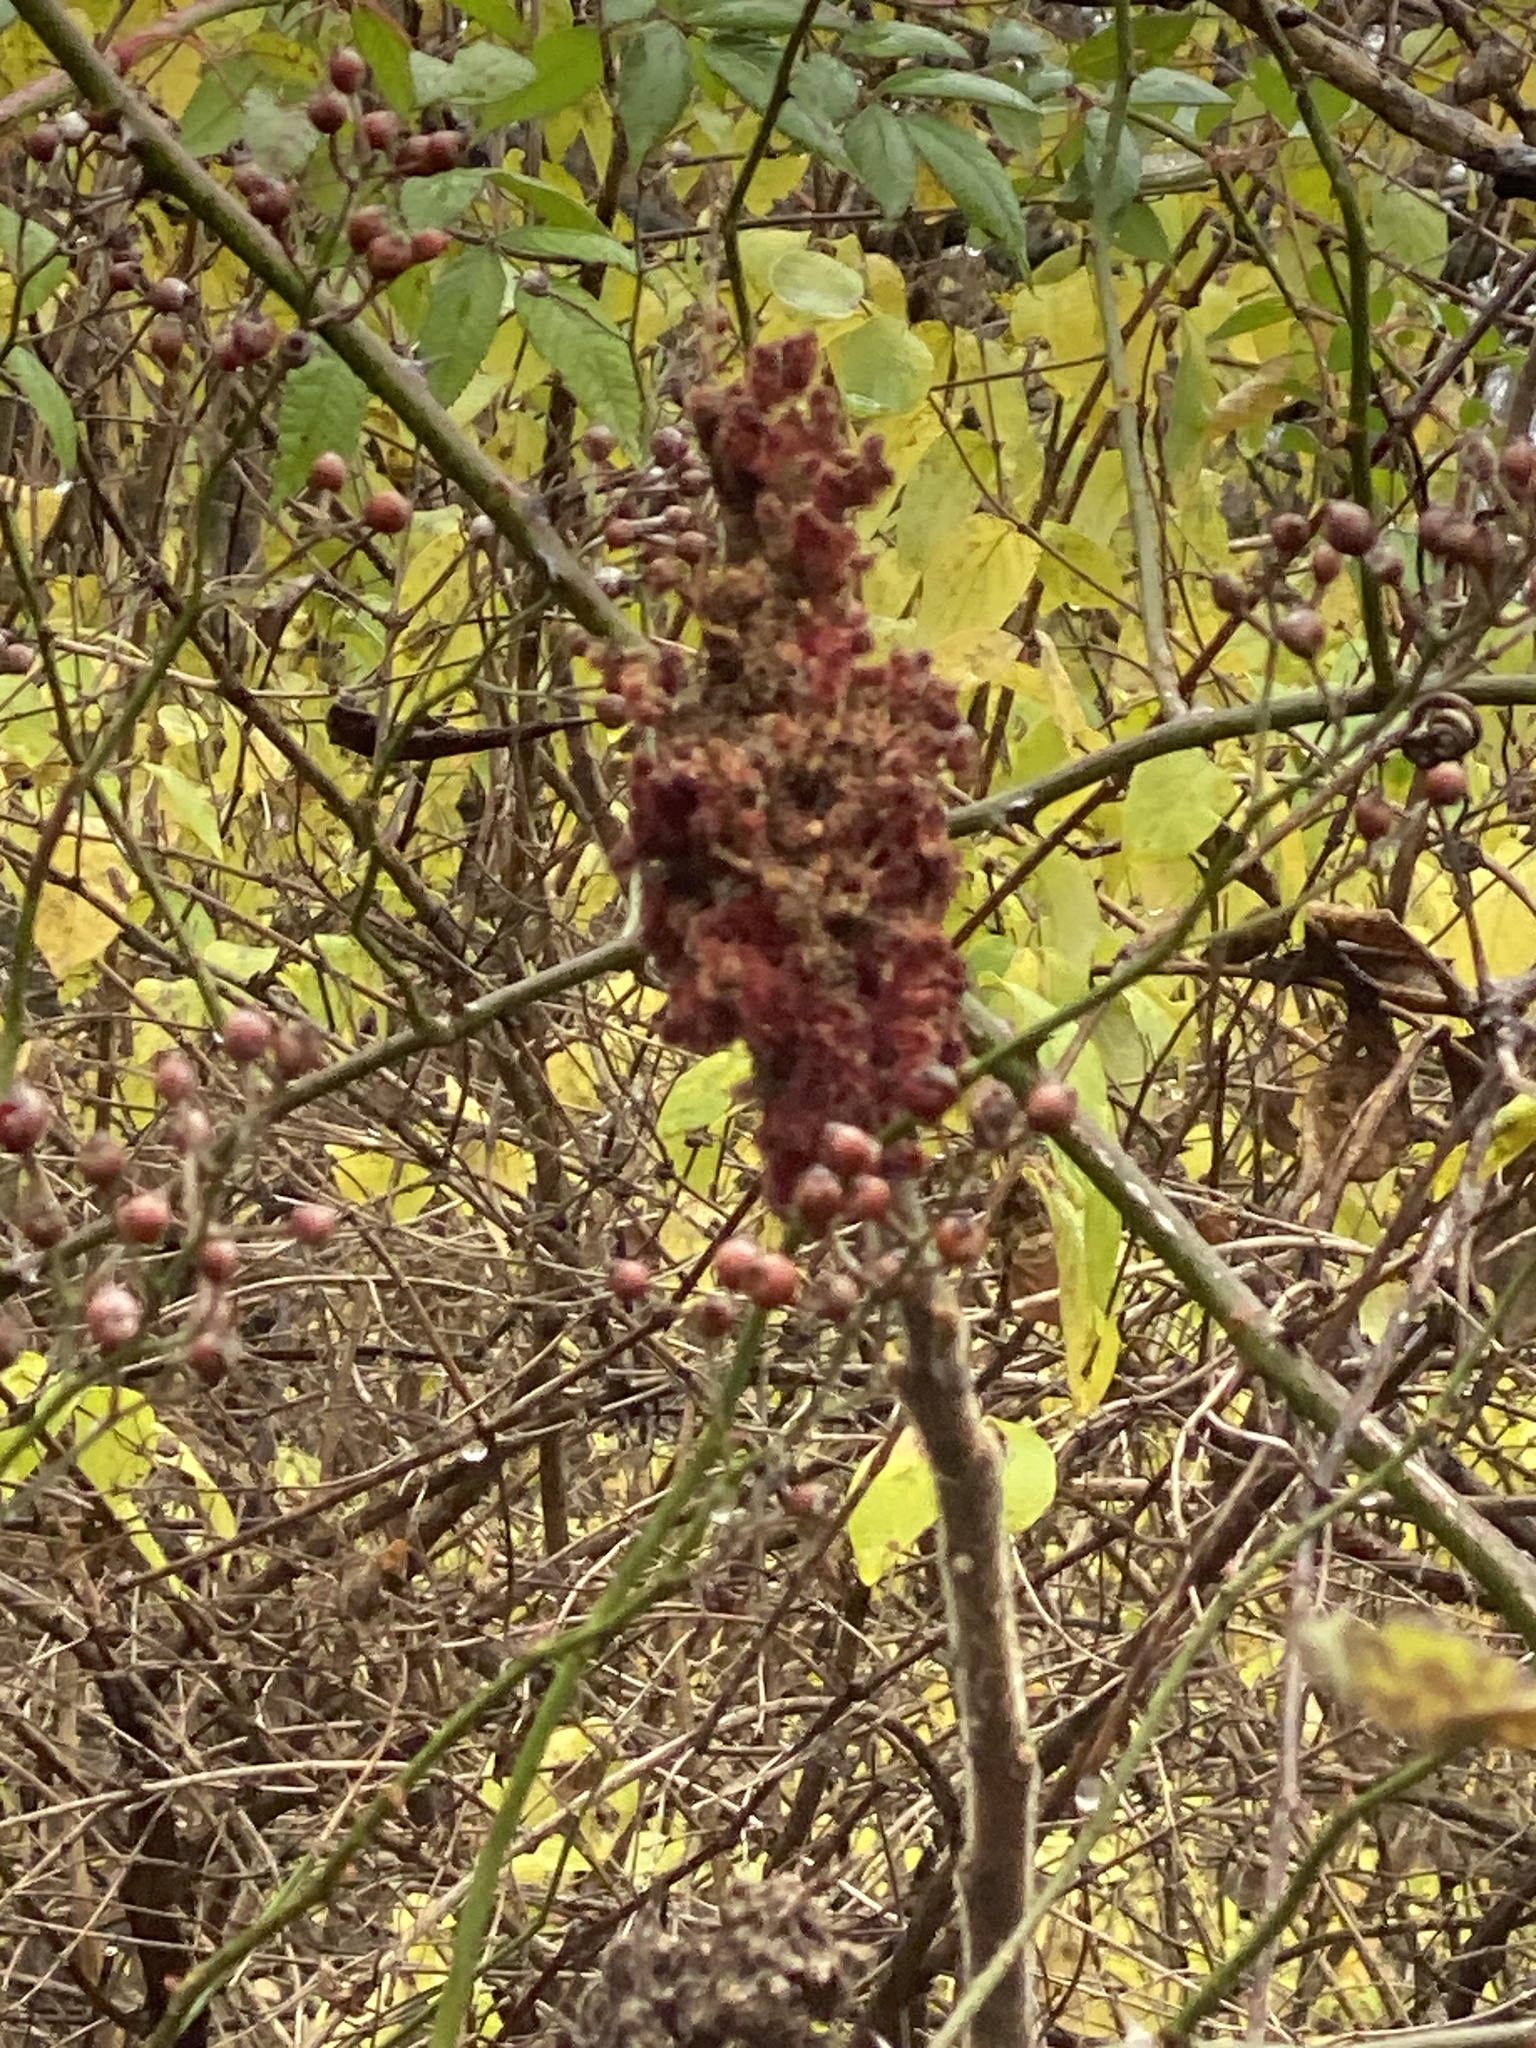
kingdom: Plantae
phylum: Tracheophyta
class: Magnoliopsida
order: Sapindales
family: Anacardiaceae
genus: Rhus
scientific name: Rhus typhina
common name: Staghorn sumac
